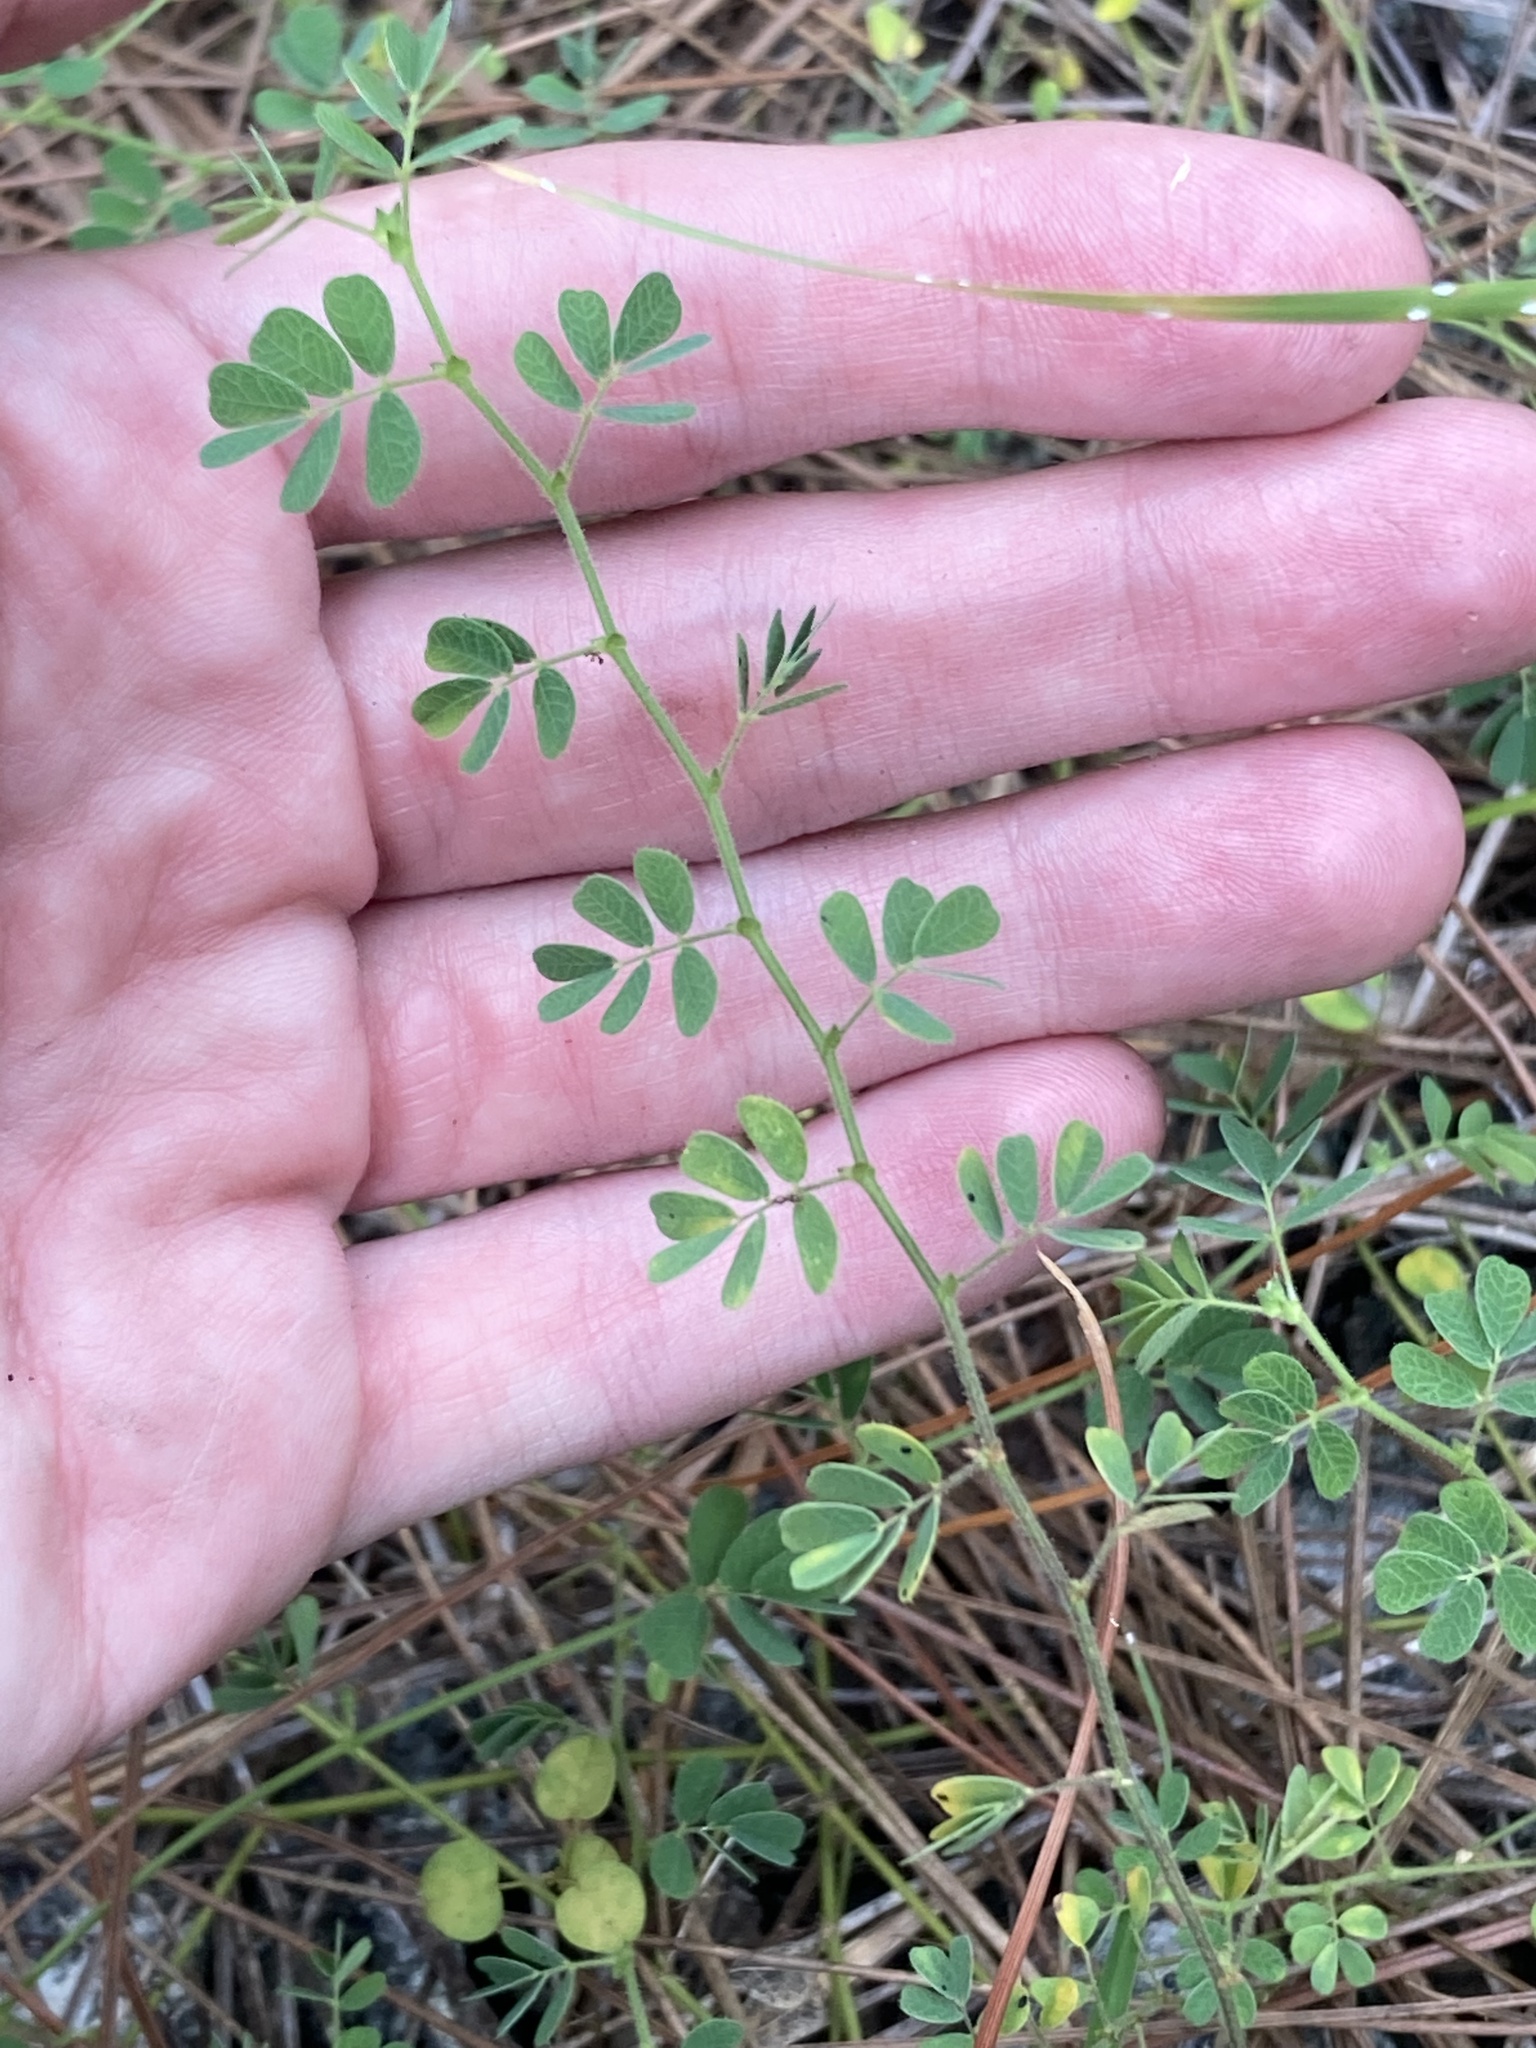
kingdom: Plantae
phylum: Tracheophyta
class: Magnoliopsida
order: Fabales
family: Fabaceae
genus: Ctenodon
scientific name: Ctenodon viscidulus
